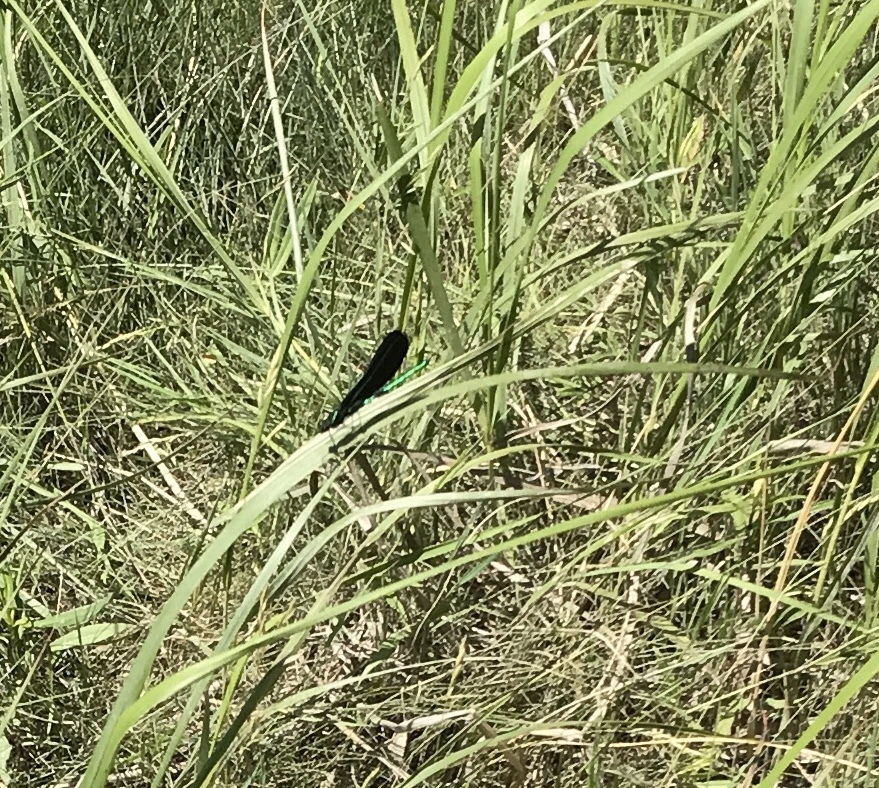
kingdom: Animalia
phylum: Arthropoda
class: Insecta
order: Odonata
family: Calopterygidae
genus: Calopteryx
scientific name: Calopteryx maculata
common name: Ebony jewelwing
